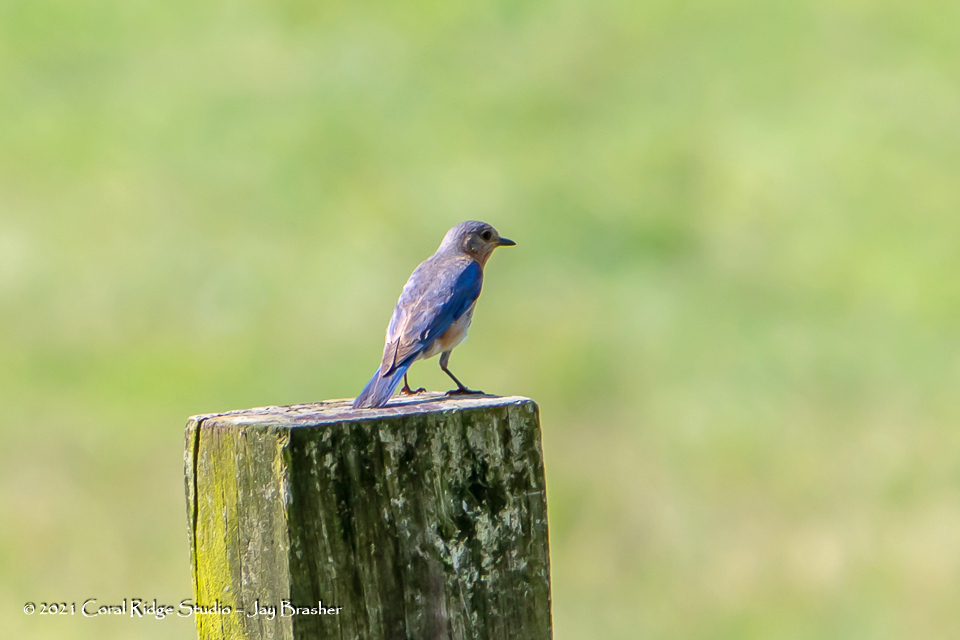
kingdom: Animalia
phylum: Chordata
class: Aves
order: Passeriformes
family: Turdidae
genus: Sialia
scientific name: Sialia sialis
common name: Eastern bluebird
